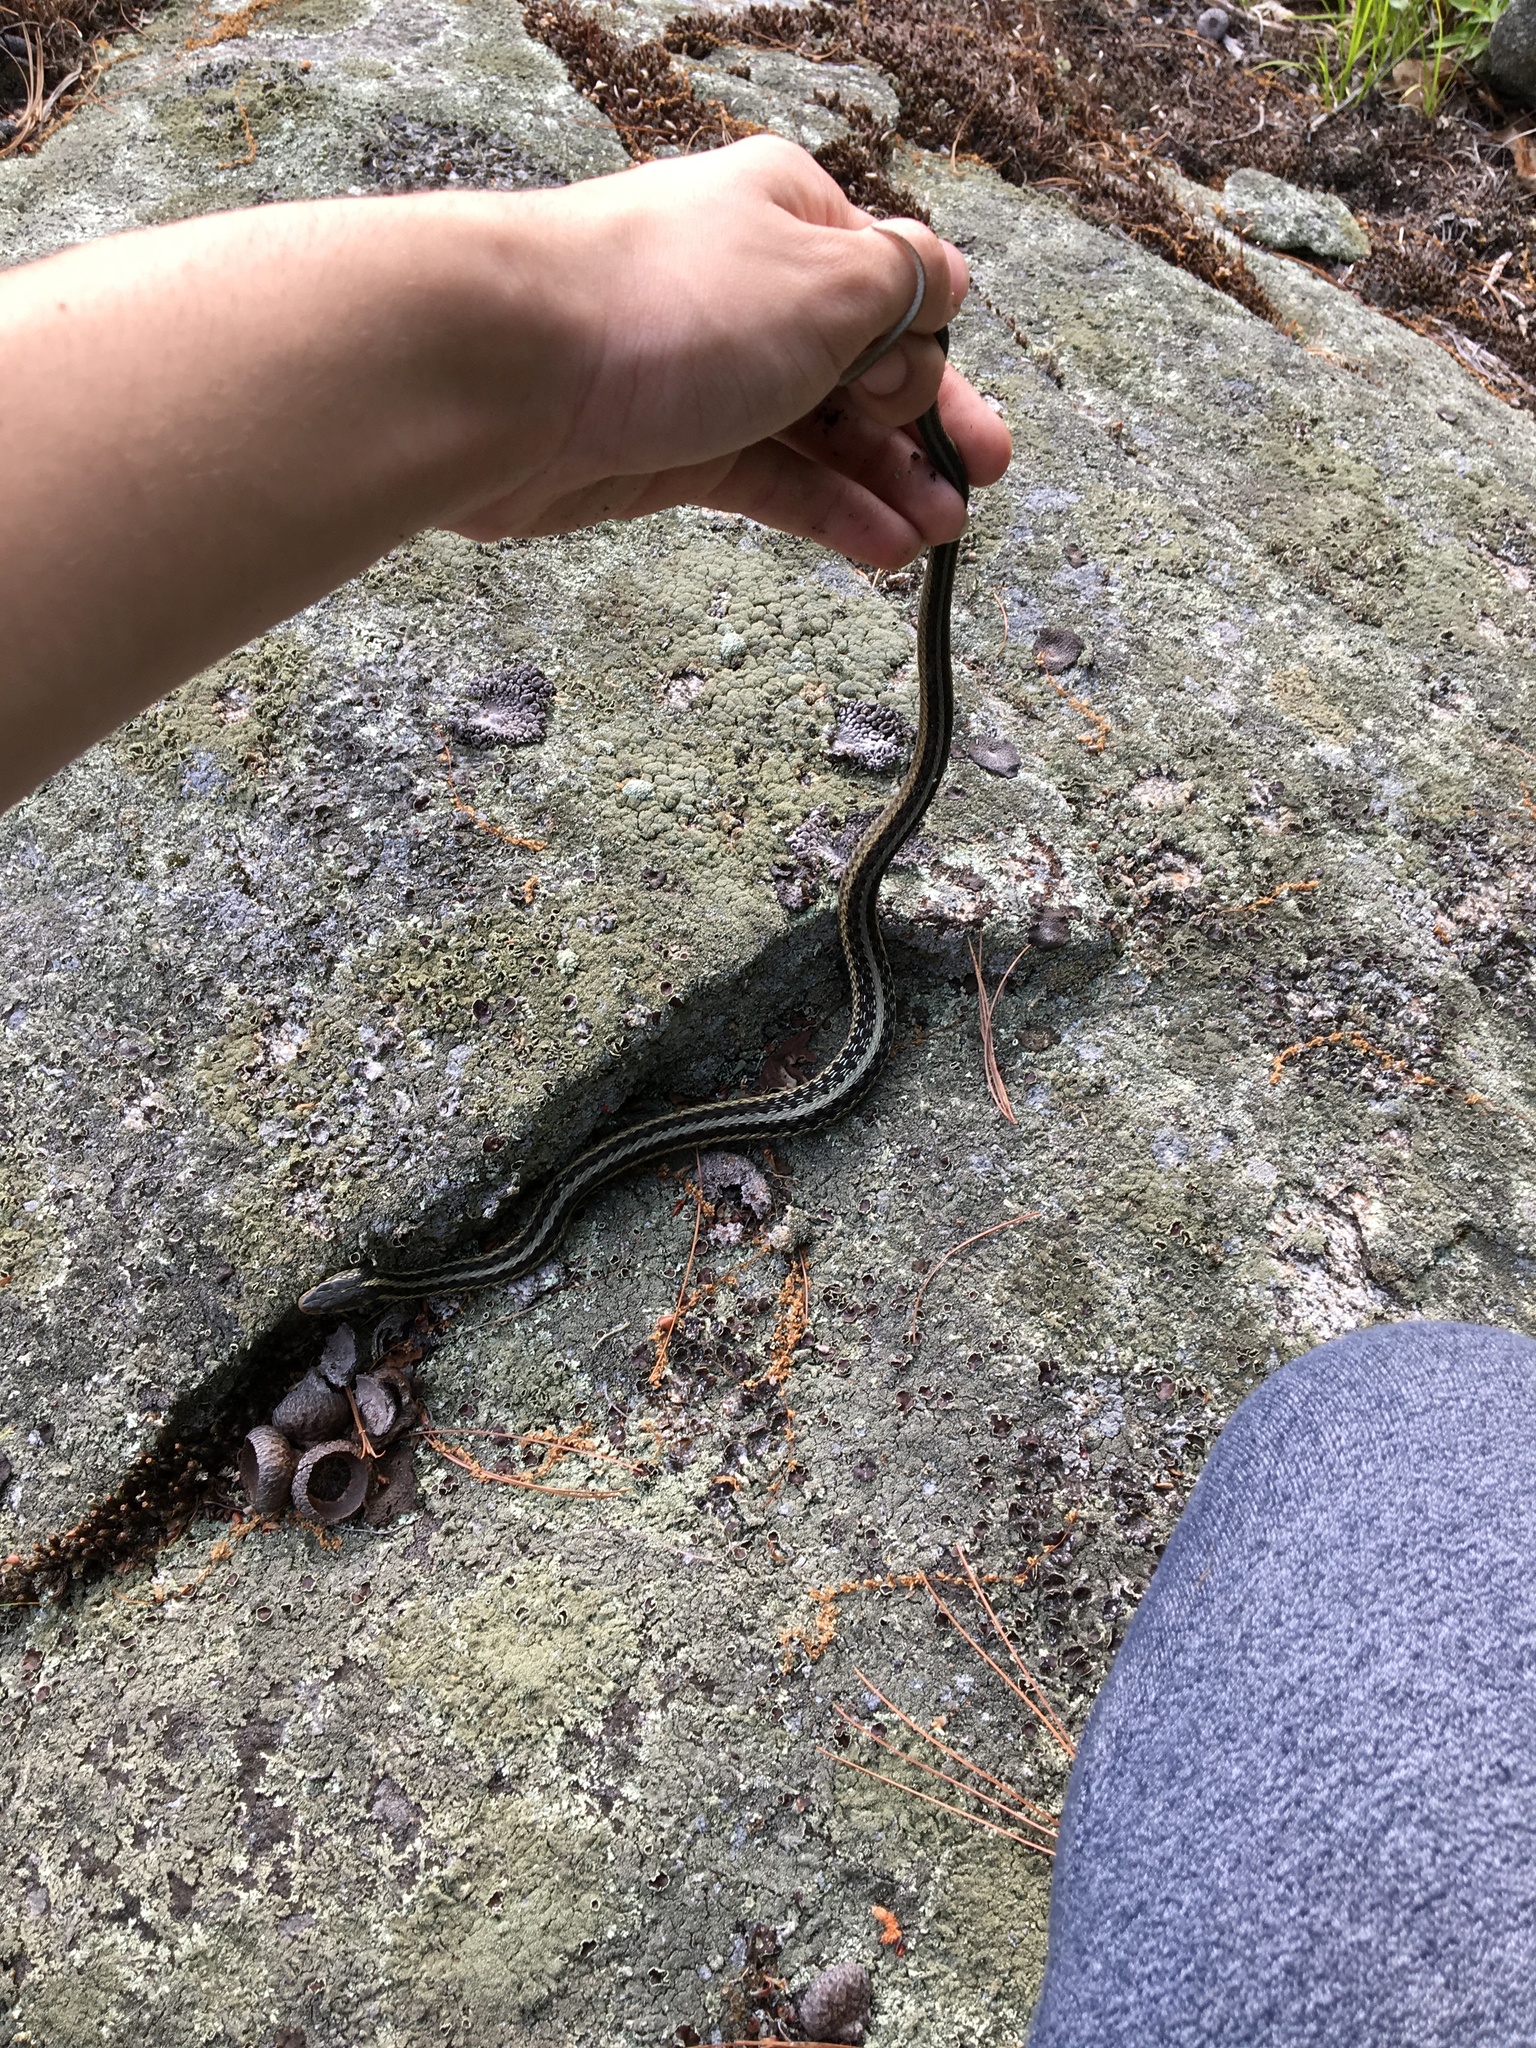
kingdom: Animalia
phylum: Chordata
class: Squamata
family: Colubridae
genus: Thamnophis
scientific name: Thamnophis sirtalis
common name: Common garter snake
